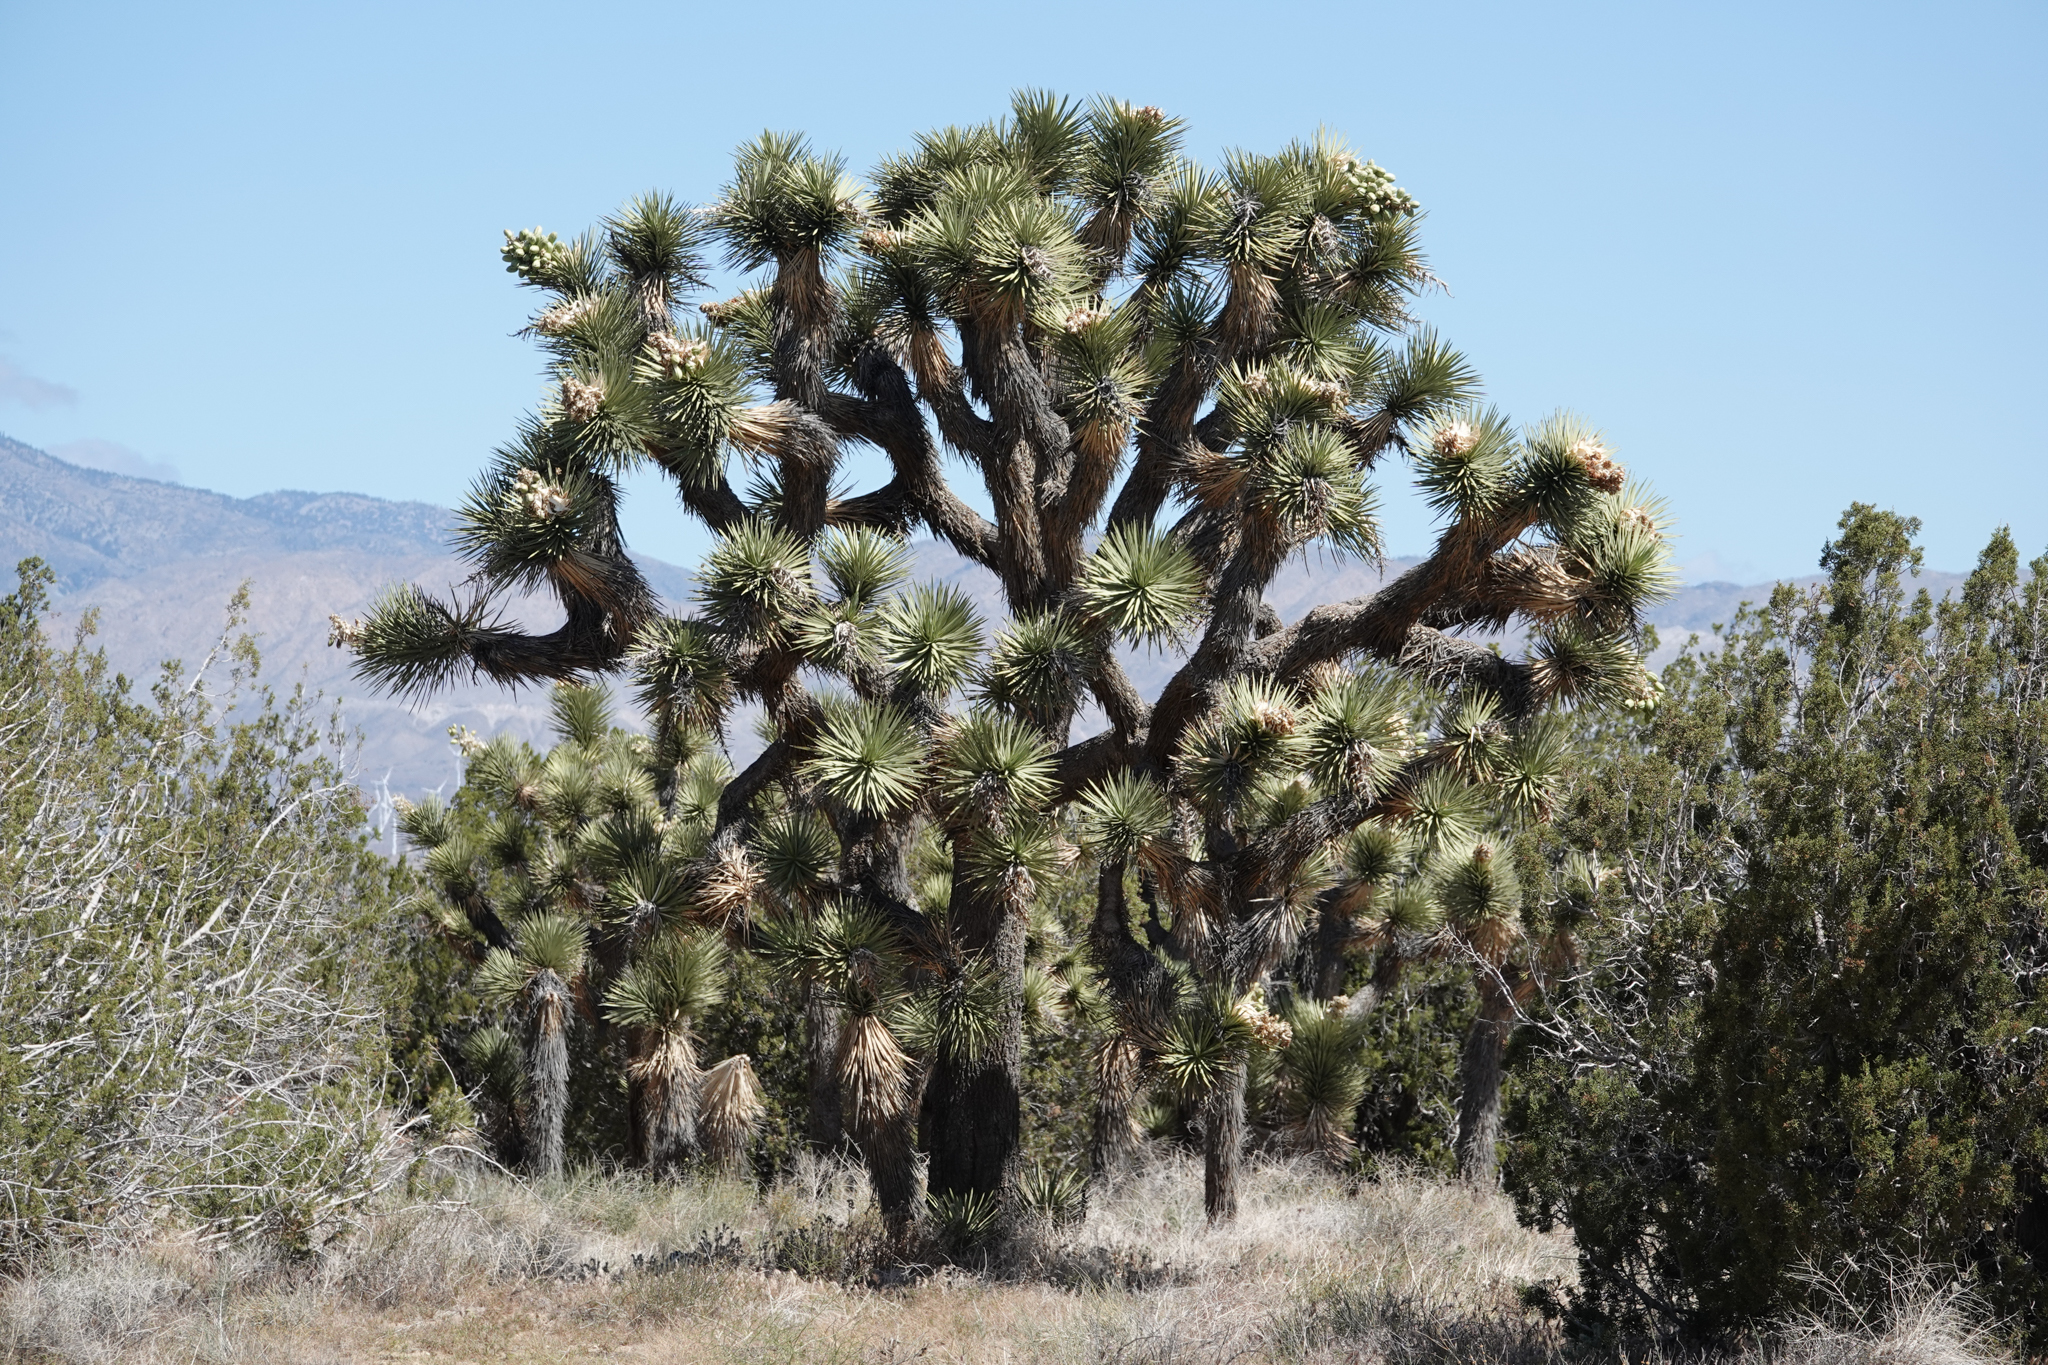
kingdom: Plantae
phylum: Tracheophyta
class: Liliopsida
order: Asparagales
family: Asparagaceae
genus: Yucca
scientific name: Yucca brevifolia
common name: Joshua tree
